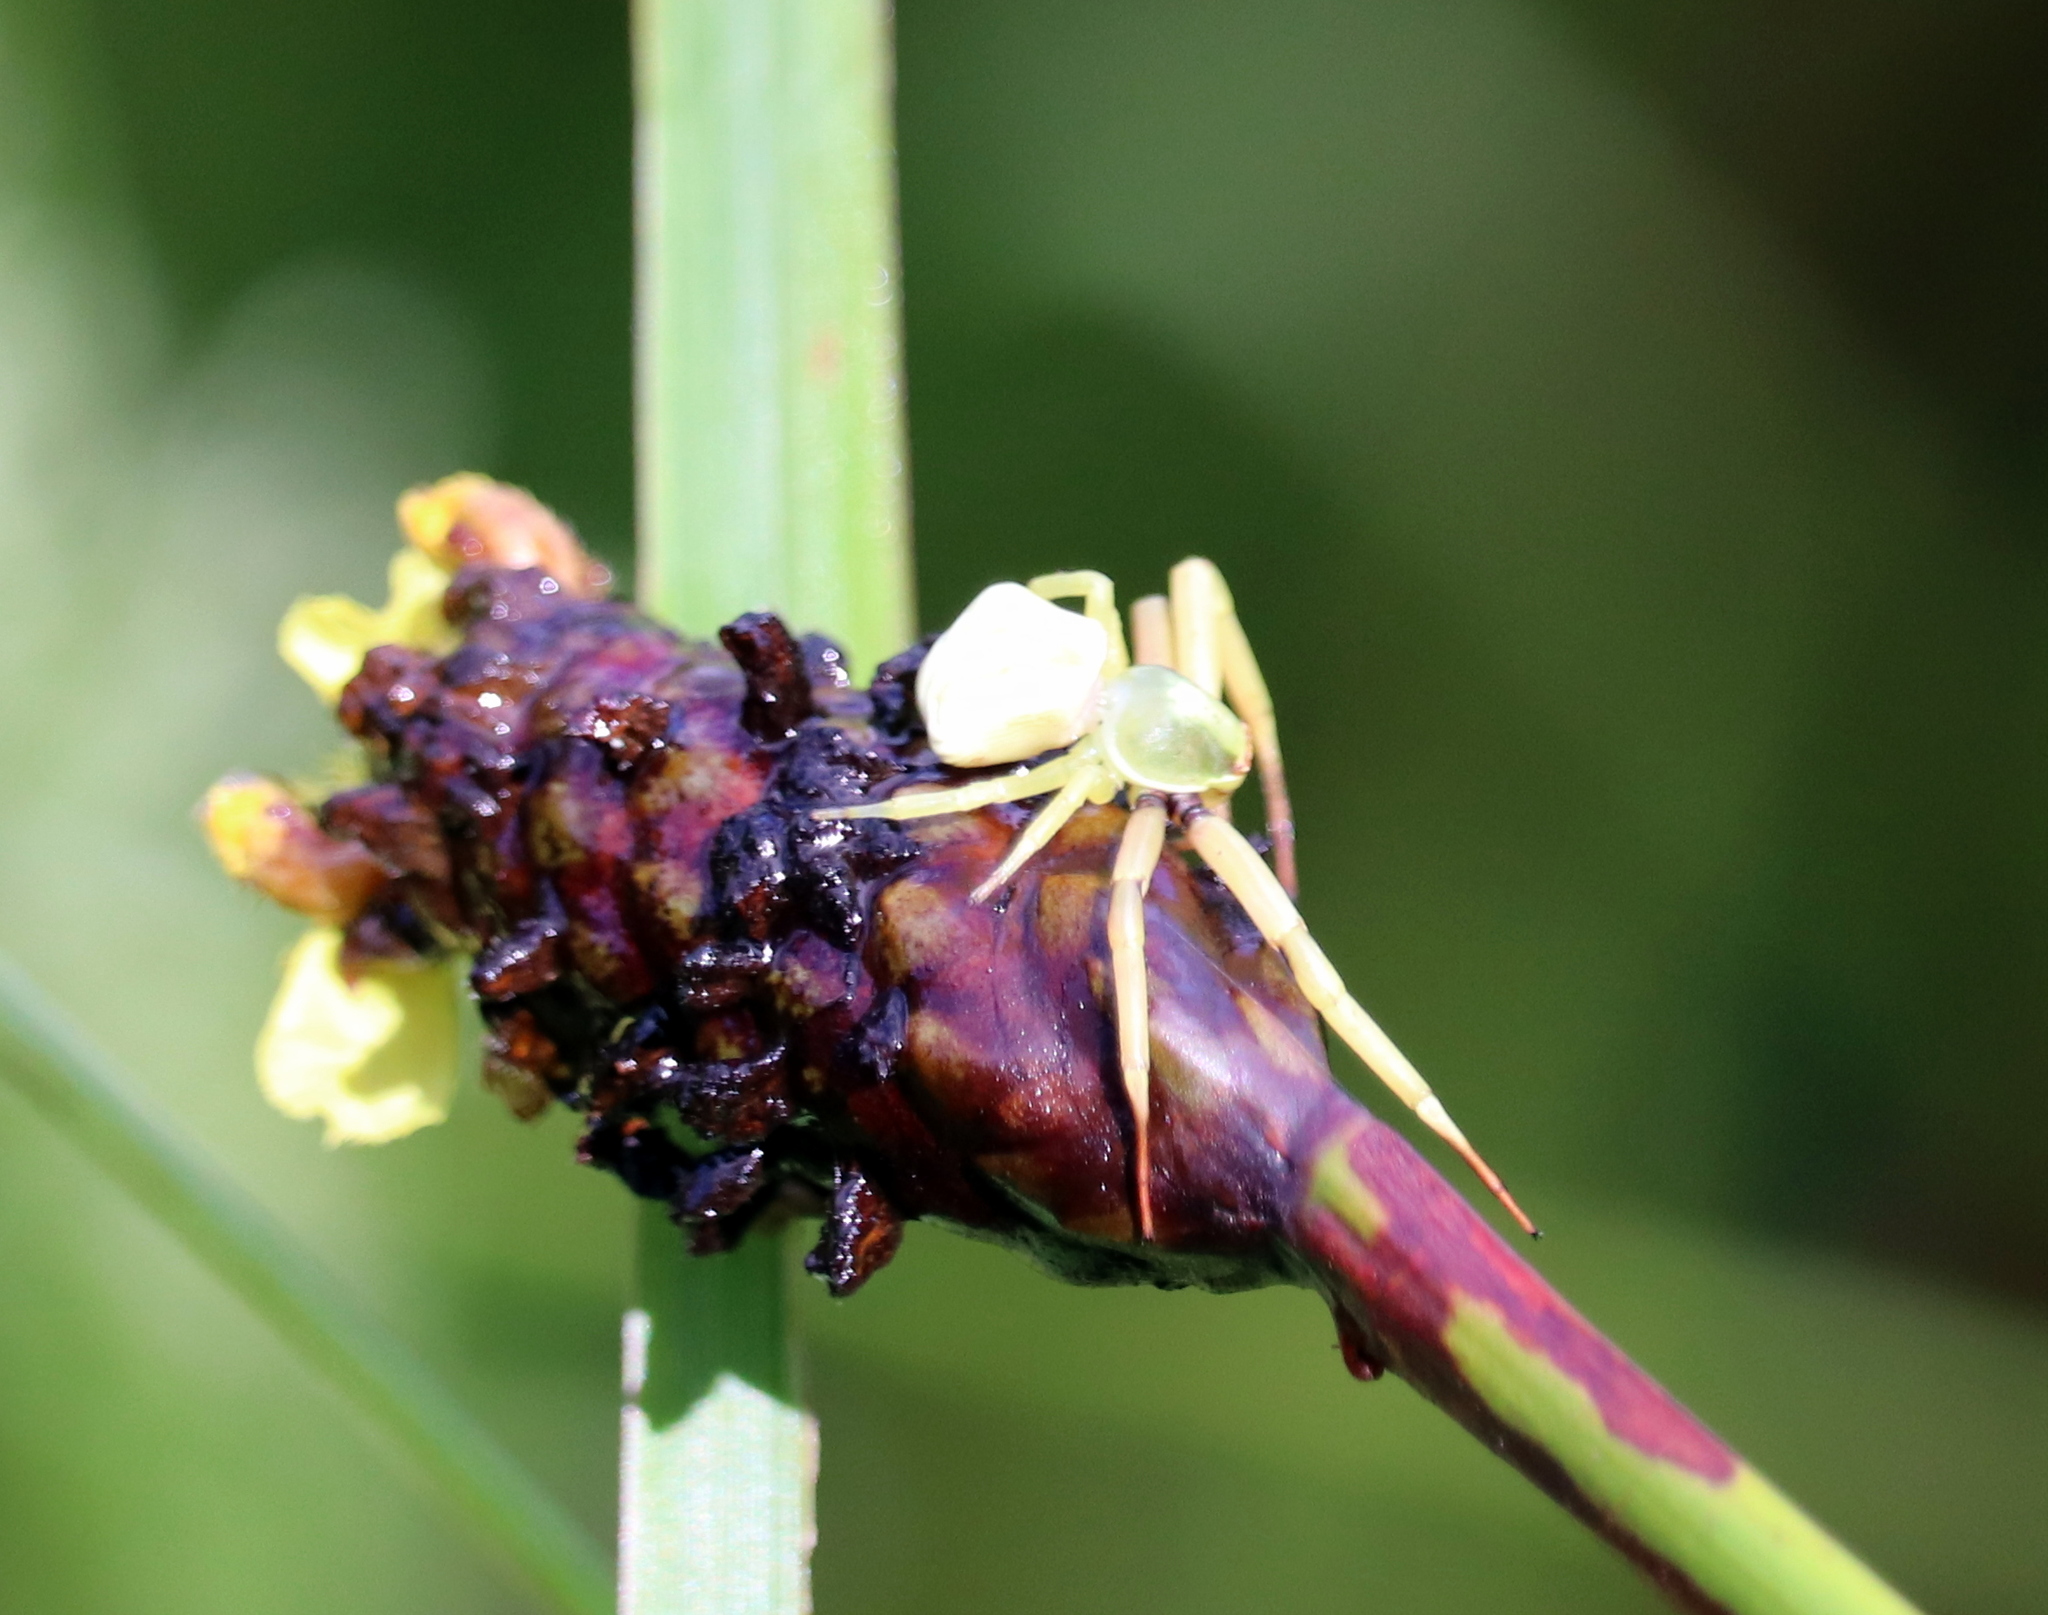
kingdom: Animalia
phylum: Arthropoda
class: Arachnida
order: Araneae
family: Thomisidae
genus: Misumenoides
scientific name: Misumenoides formosipes
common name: White-banded crab spider
